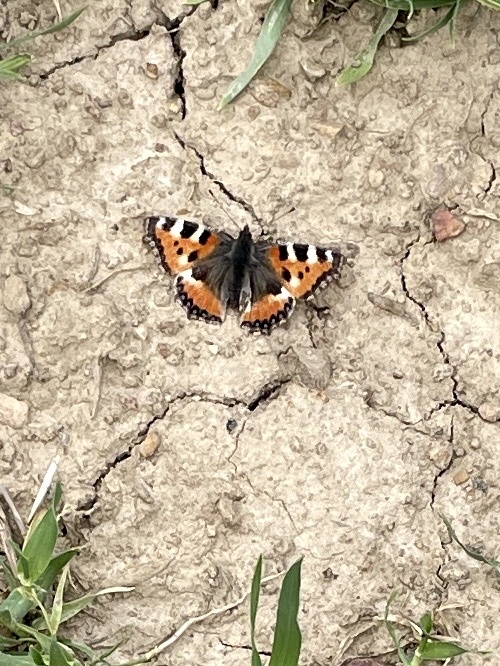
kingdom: Animalia
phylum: Arthropoda
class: Insecta
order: Lepidoptera
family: Nymphalidae
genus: Aglais
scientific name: Aglais urticae
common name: Small tortoiseshell
